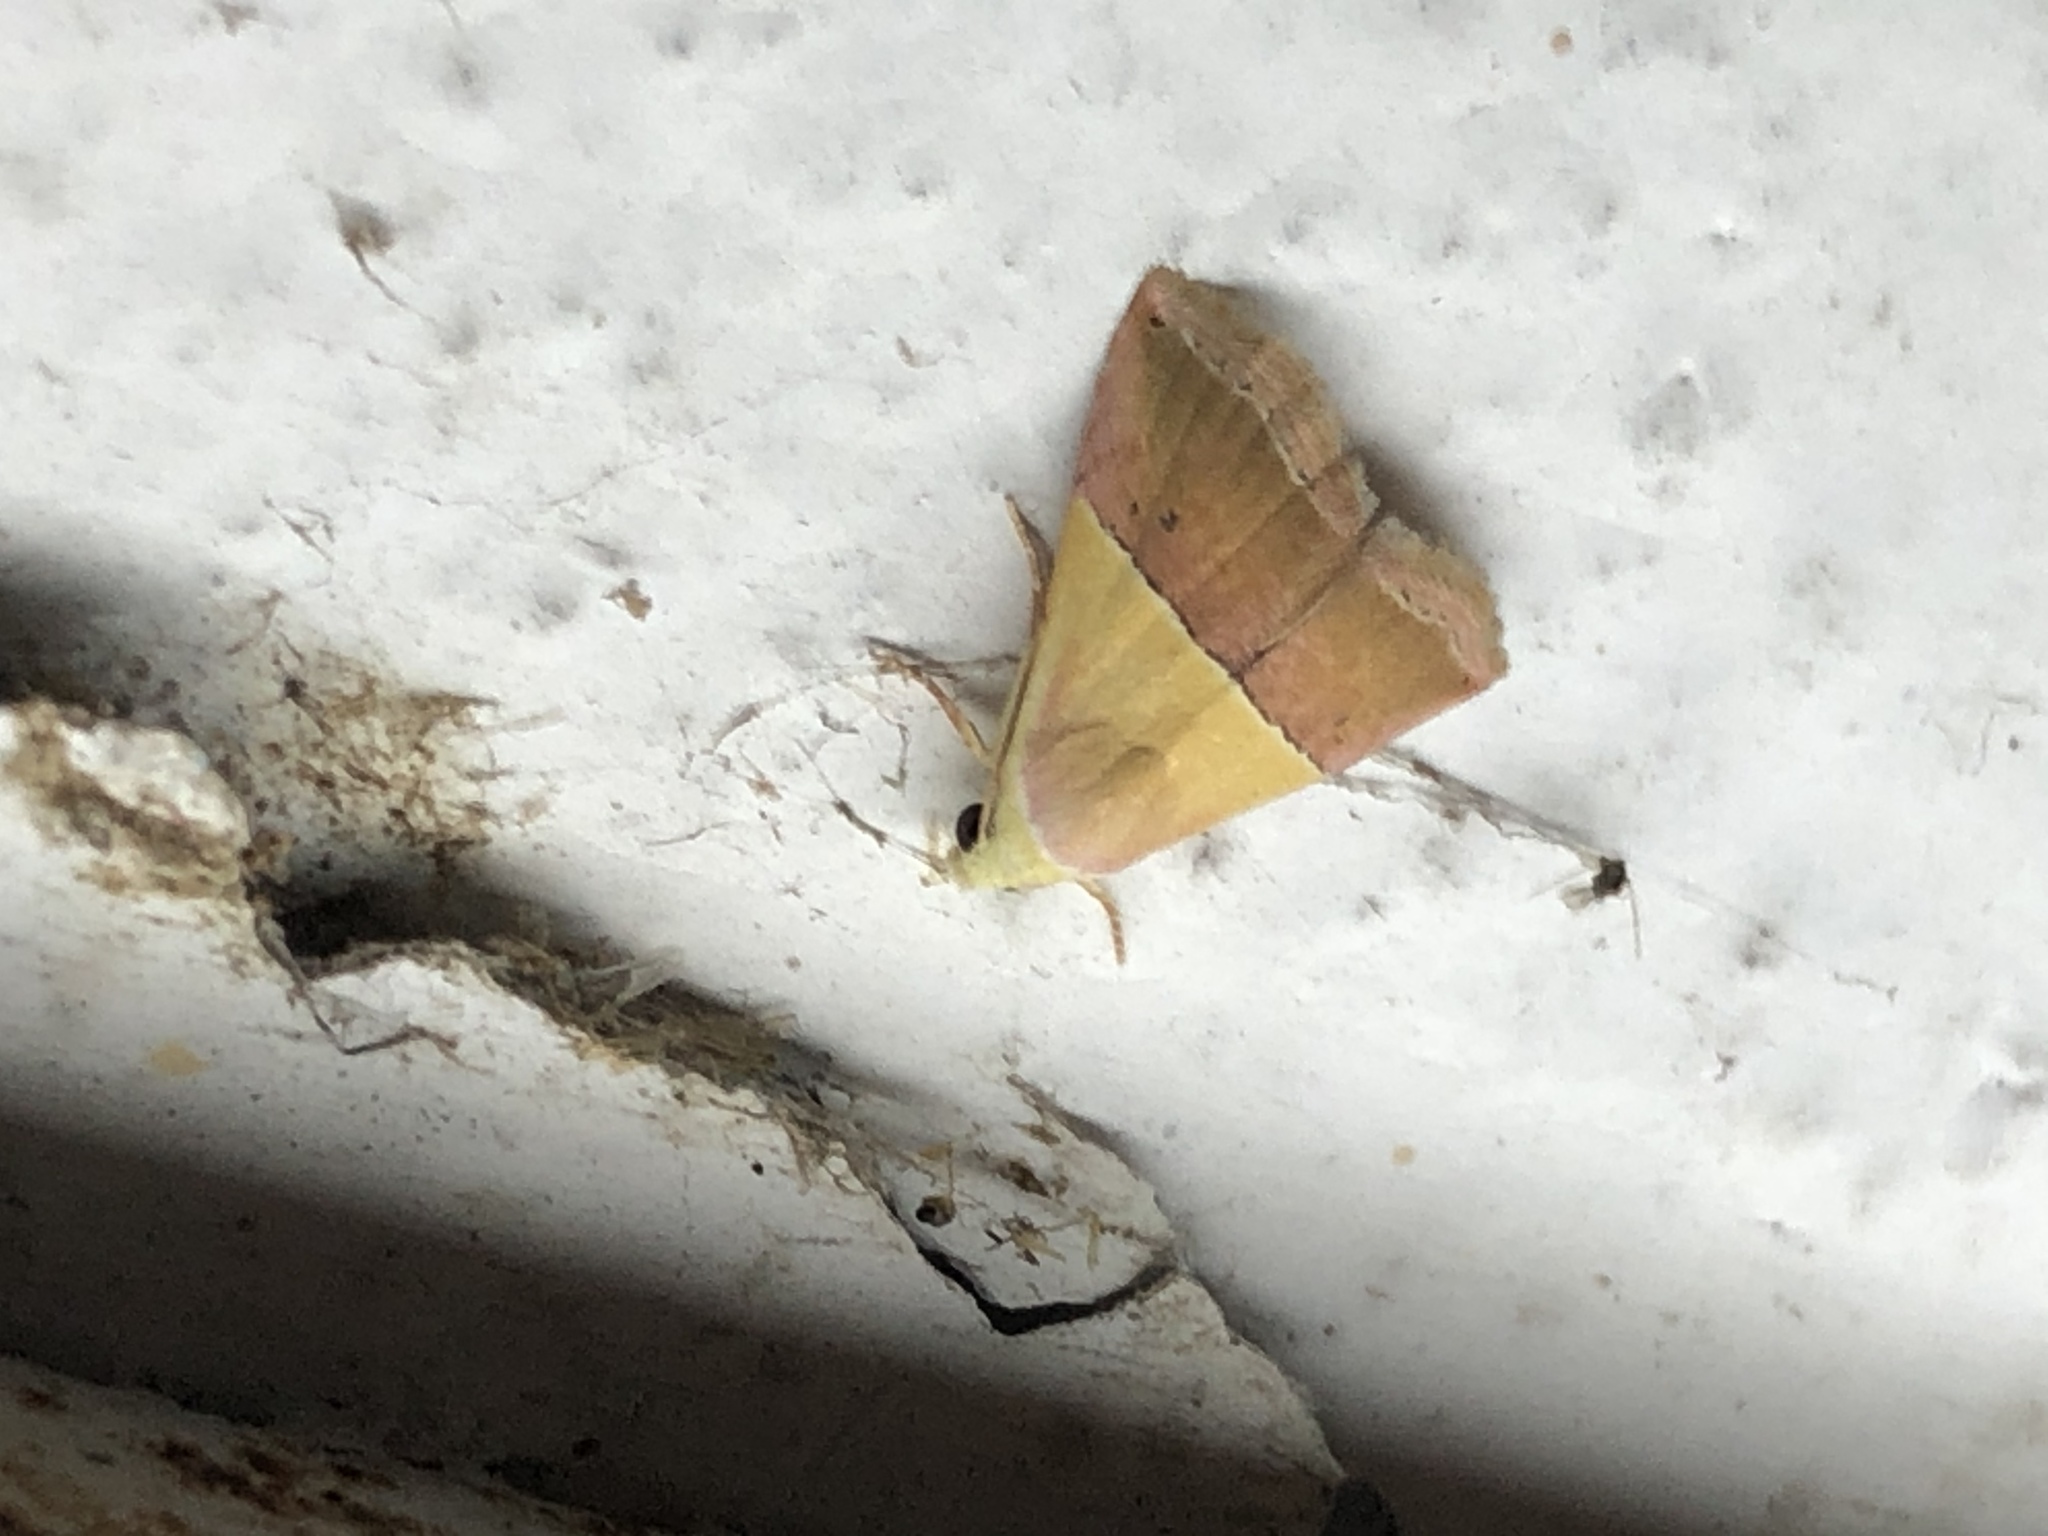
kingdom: Animalia
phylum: Arthropoda
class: Insecta
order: Lepidoptera
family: Noctuidae
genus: Eublemma
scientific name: Eublemma accedens
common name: Moth
